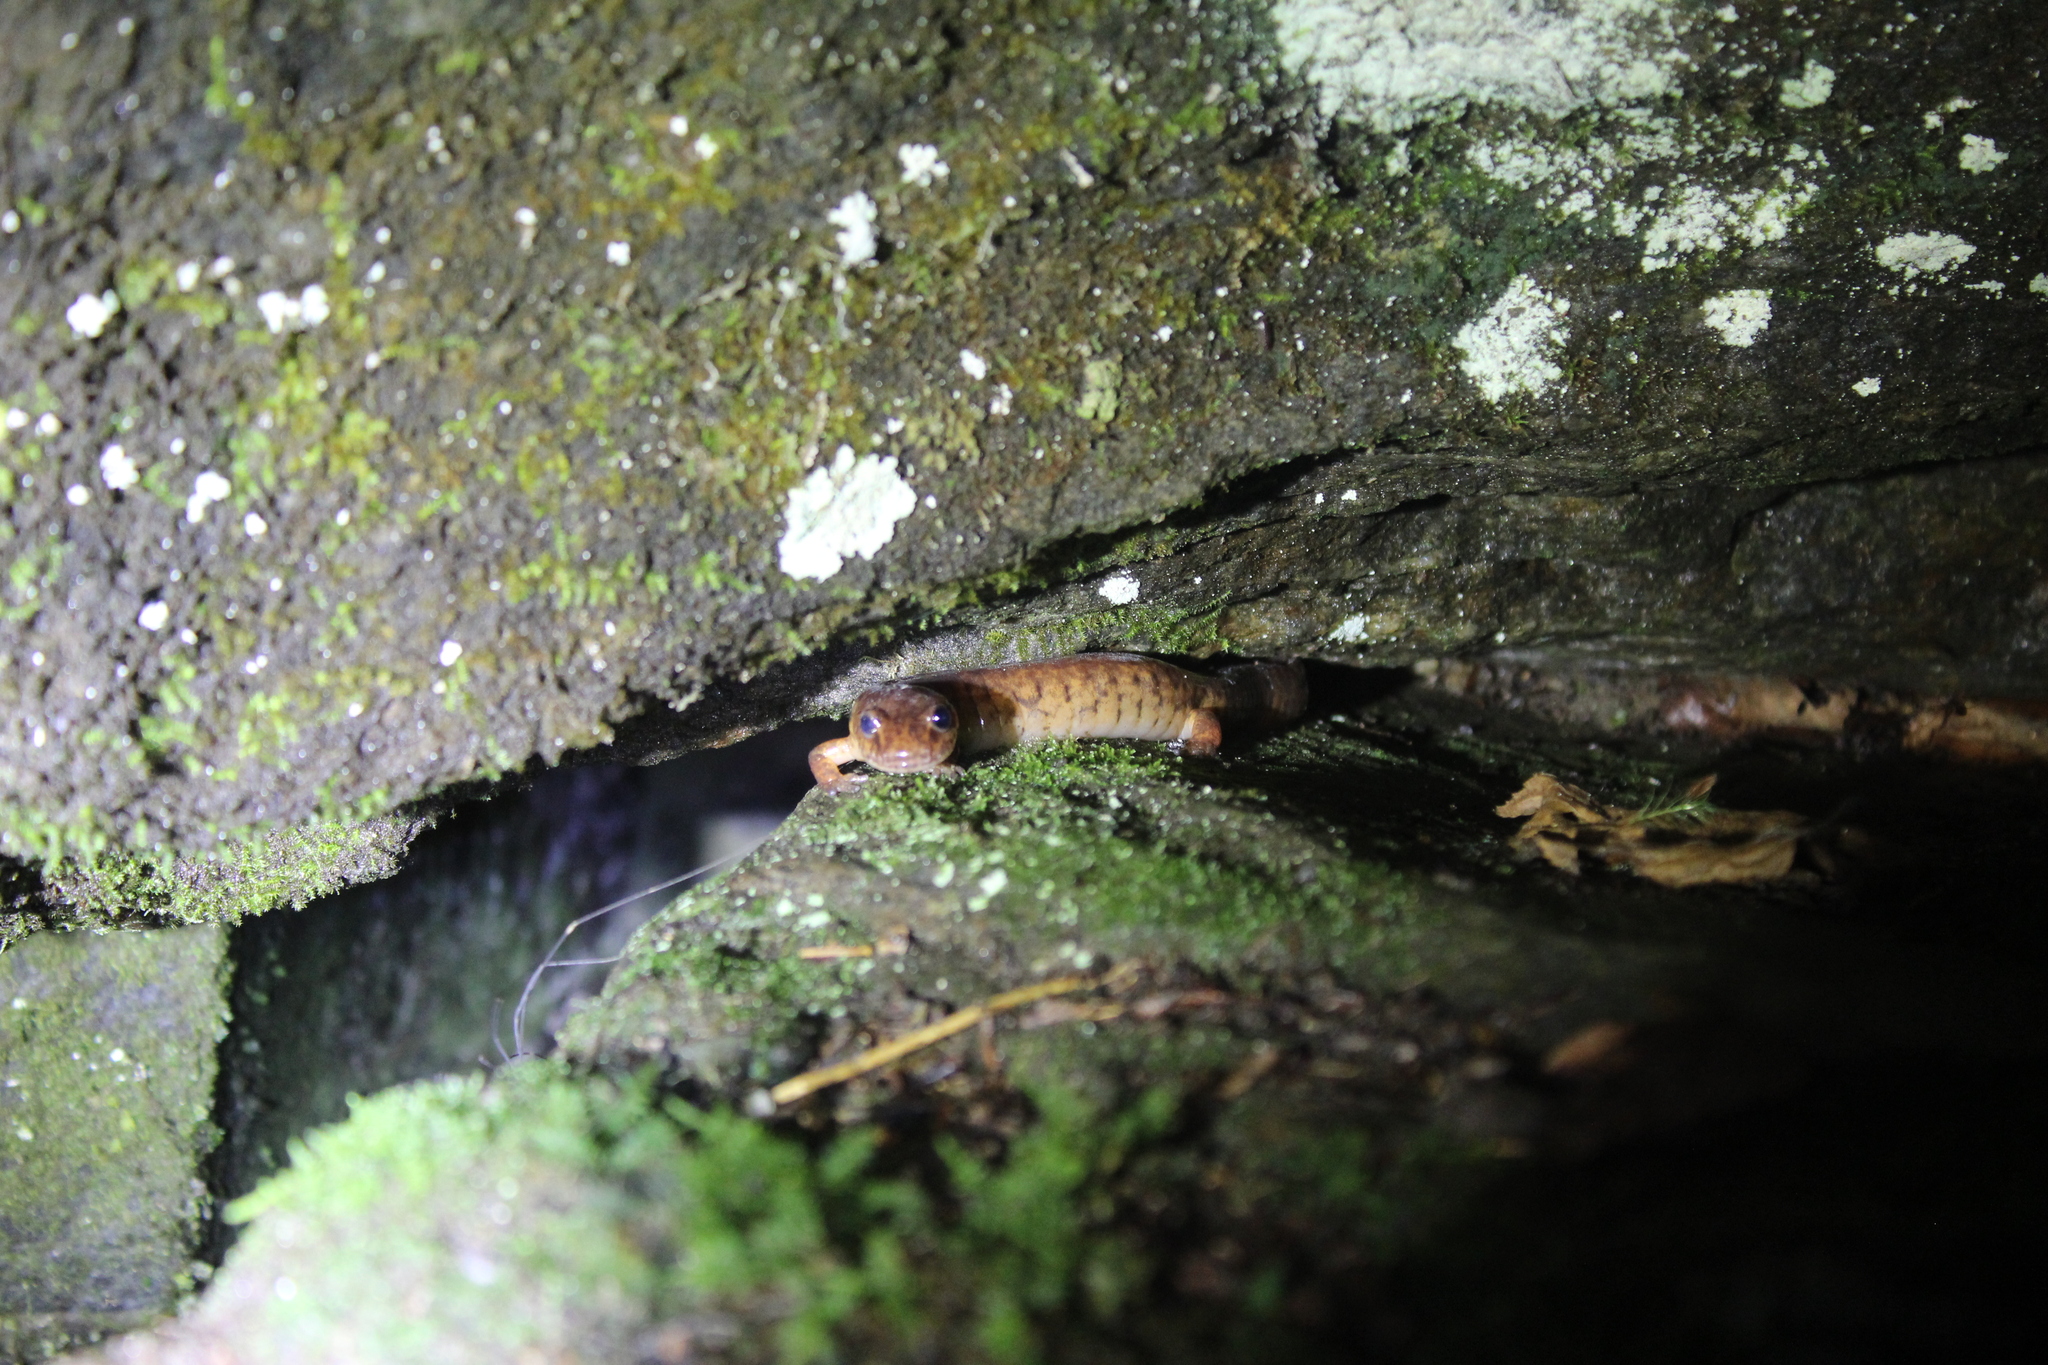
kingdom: Animalia
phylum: Chordata
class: Amphibia
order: Caudata
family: Plethodontidae
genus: Gyrinophilus
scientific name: Gyrinophilus porphyriticus
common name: Spring salamander
